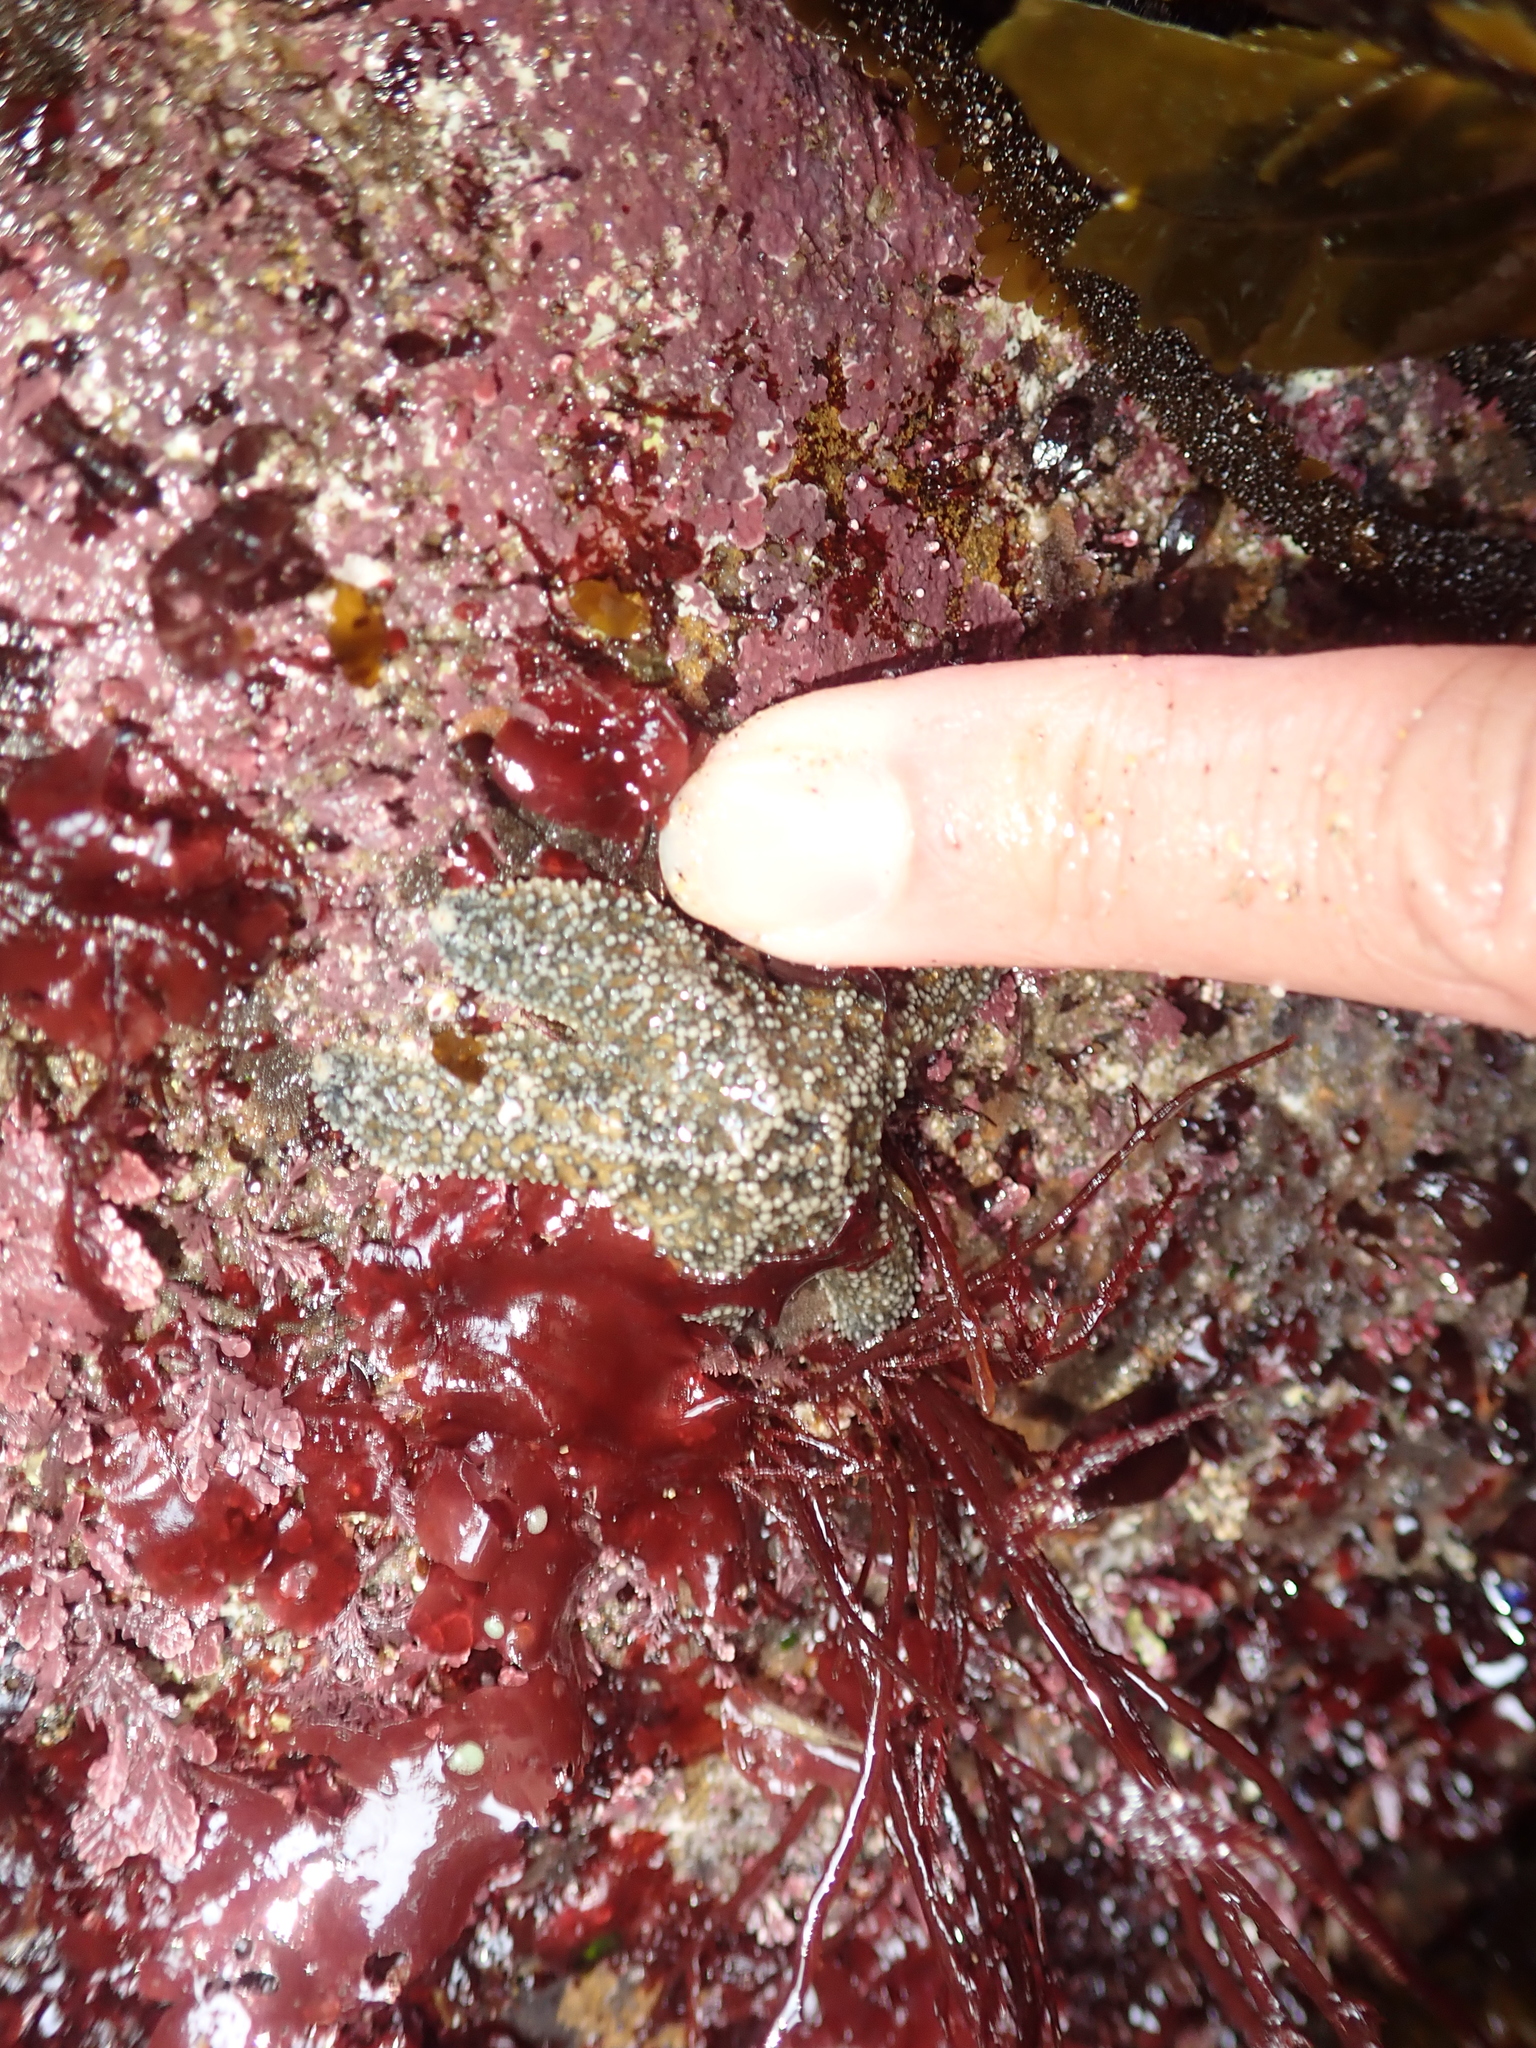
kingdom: Animalia
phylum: Echinodermata
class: Asteroidea
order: Forcipulatida
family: Asteriidae
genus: Pisaster
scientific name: Pisaster ochraceus
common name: Ochre stars
